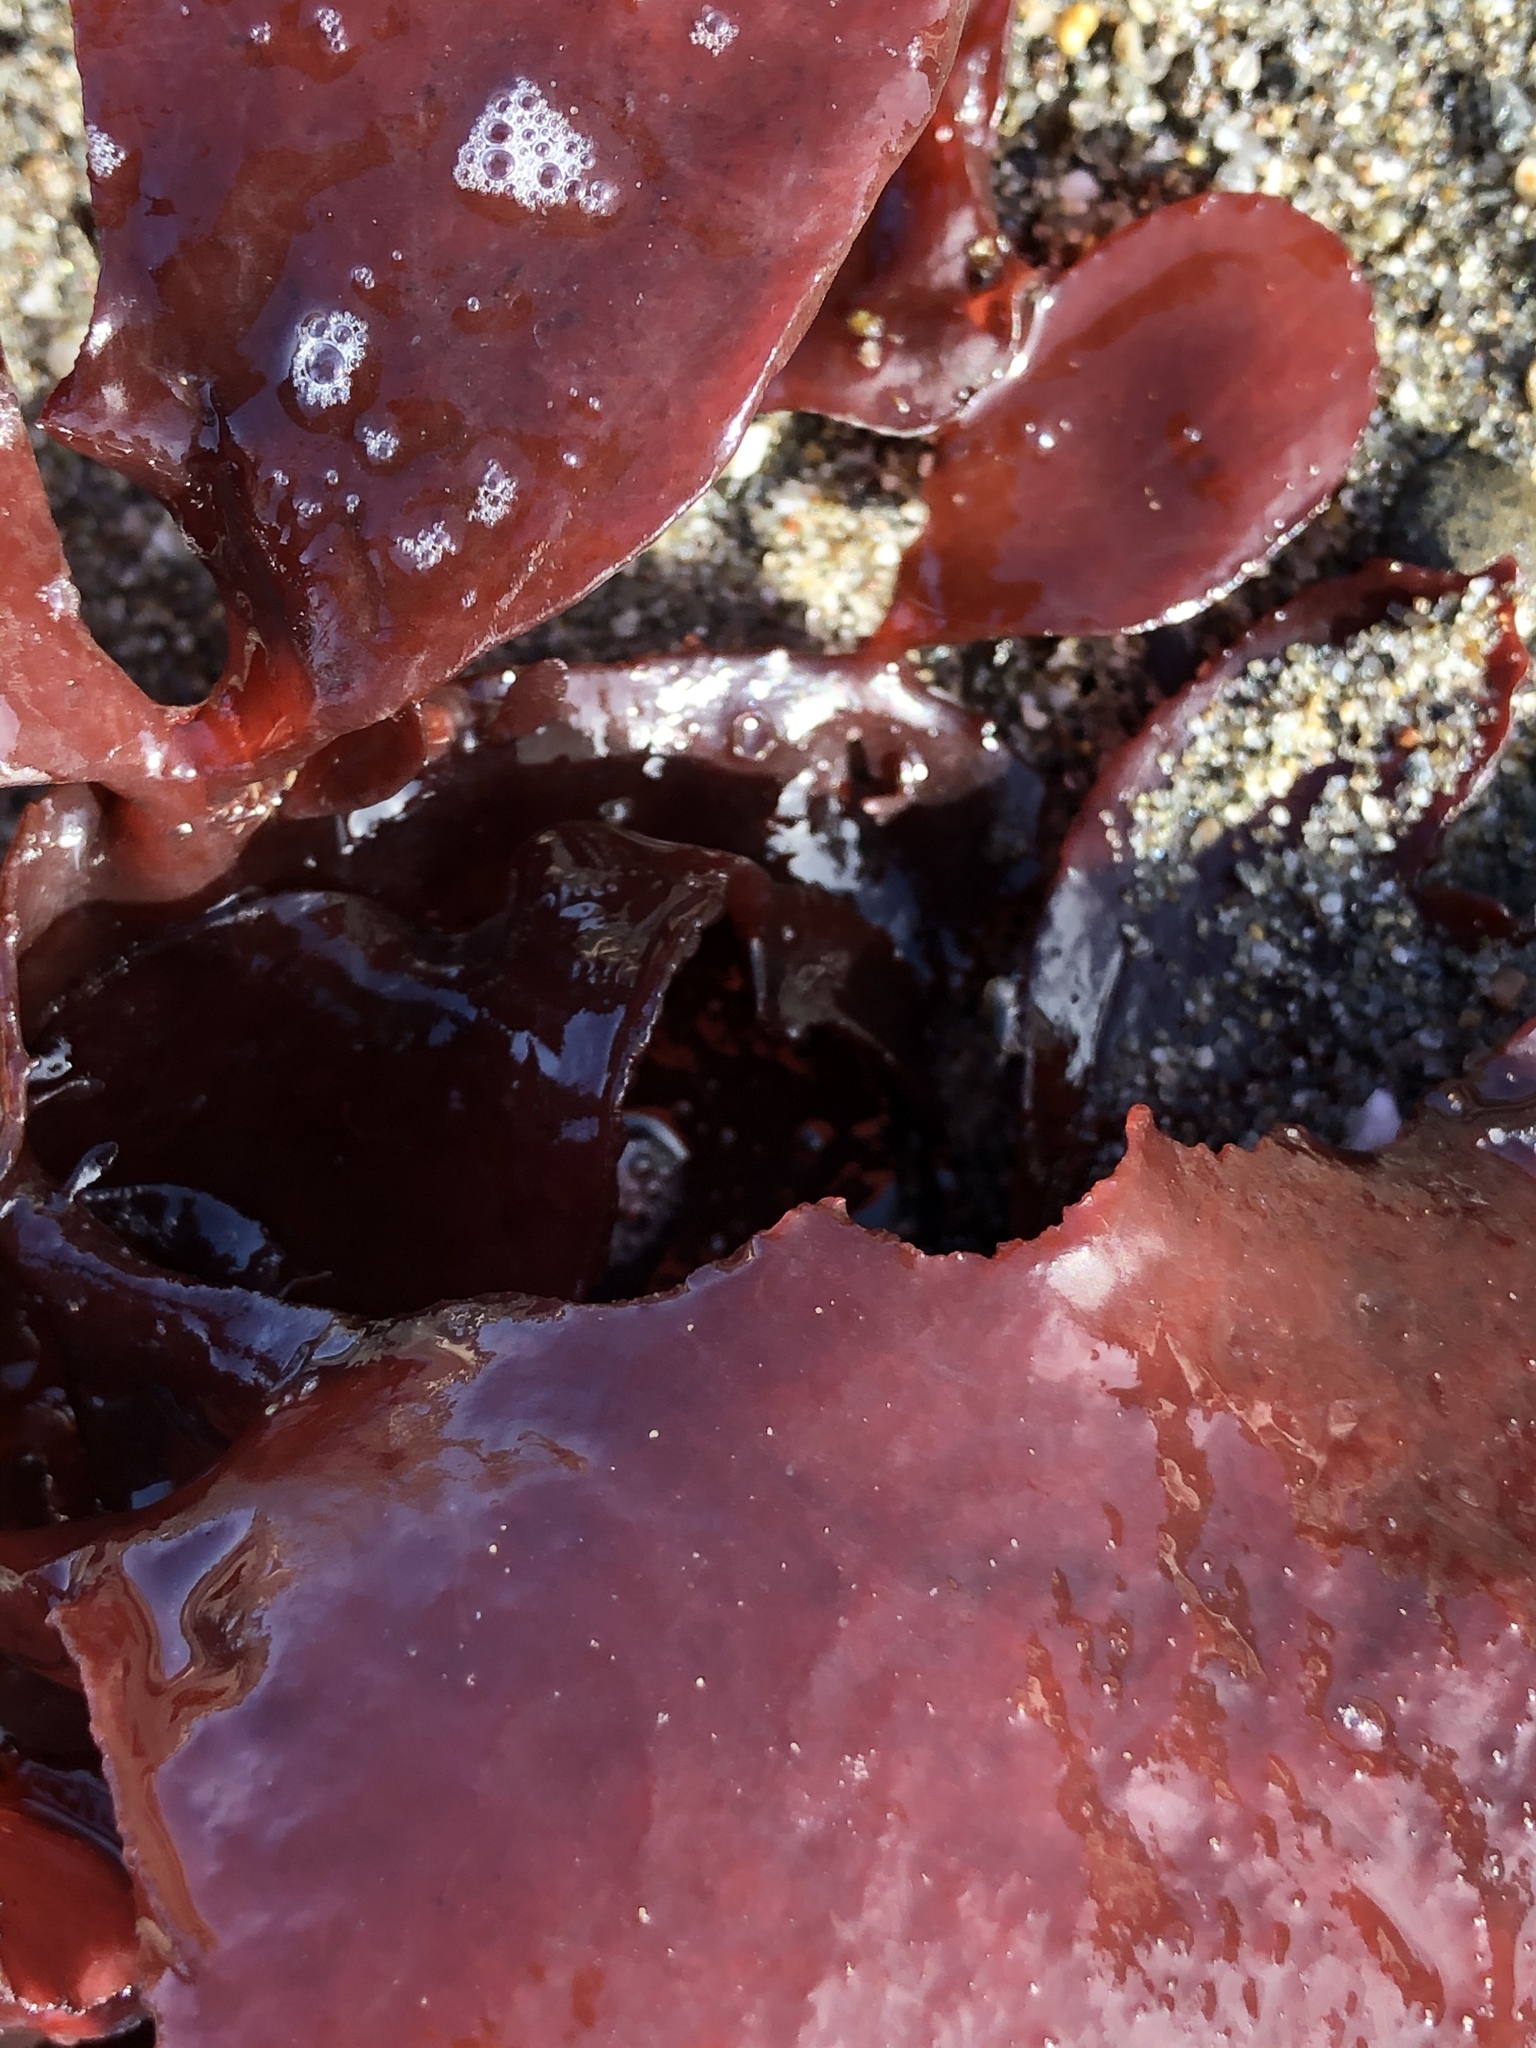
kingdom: Plantae
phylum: Rhodophyta
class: Florideophyceae
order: Gigartinales
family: Furcellariaceae
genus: Opuntiella
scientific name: Opuntiella californica
